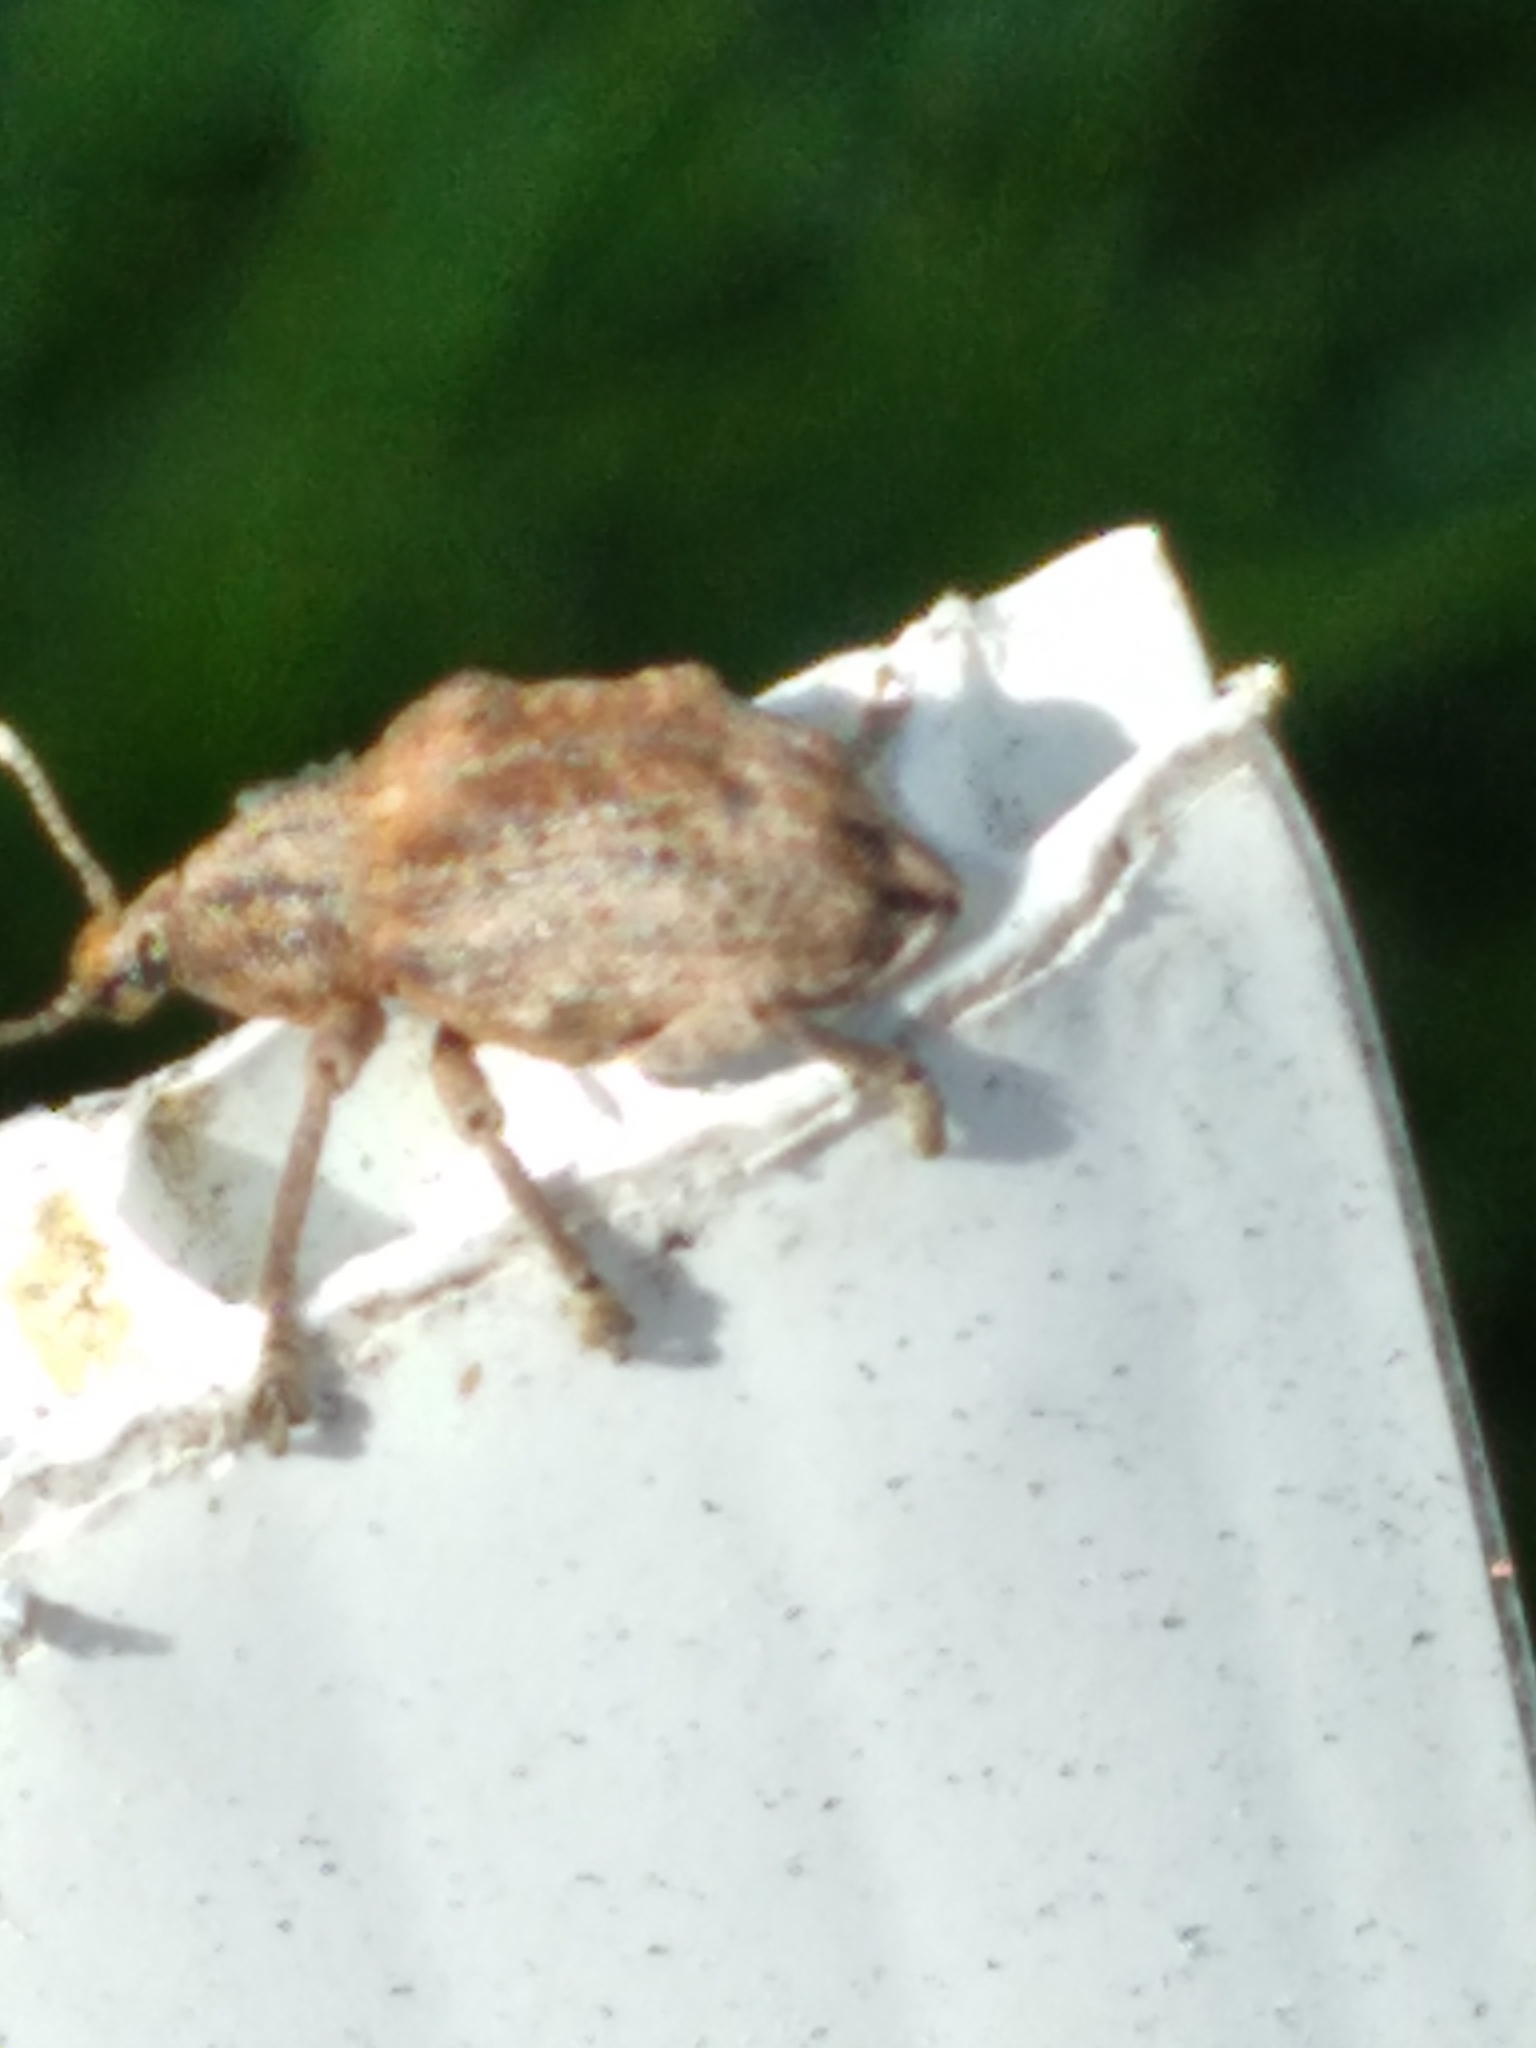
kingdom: Animalia
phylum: Arthropoda
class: Insecta
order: Coleoptera
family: Curculionidae
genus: Oxyops
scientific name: Oxyops vitiosus
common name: Weevil
